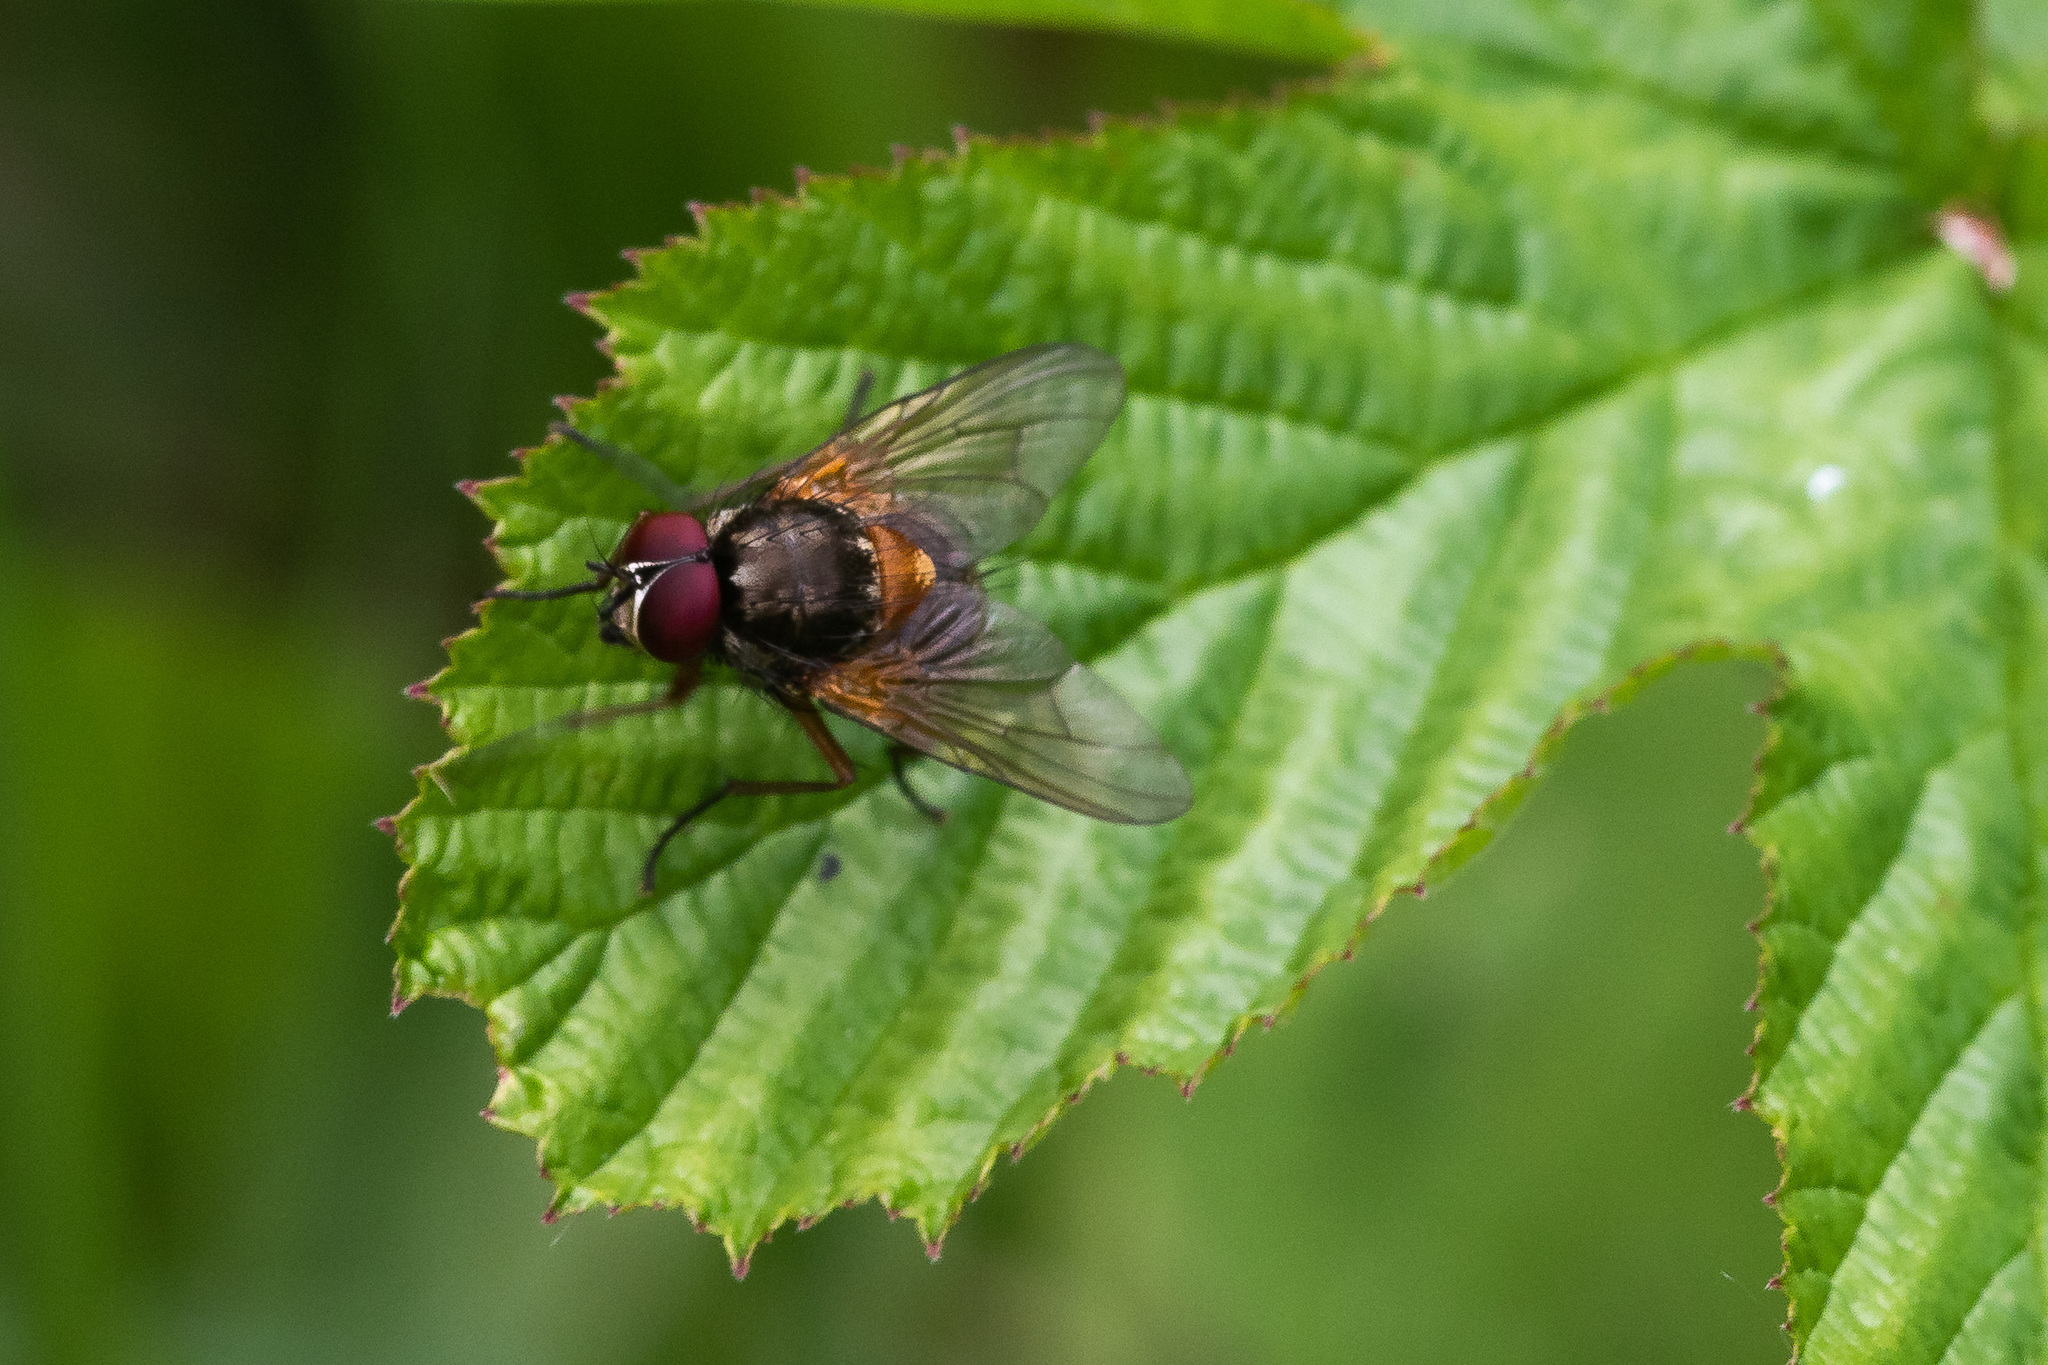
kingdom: Animalia
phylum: Arthropoda
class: Insecta
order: Diptera
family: Muscidae
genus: Mydaea
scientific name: Mydaea corni
